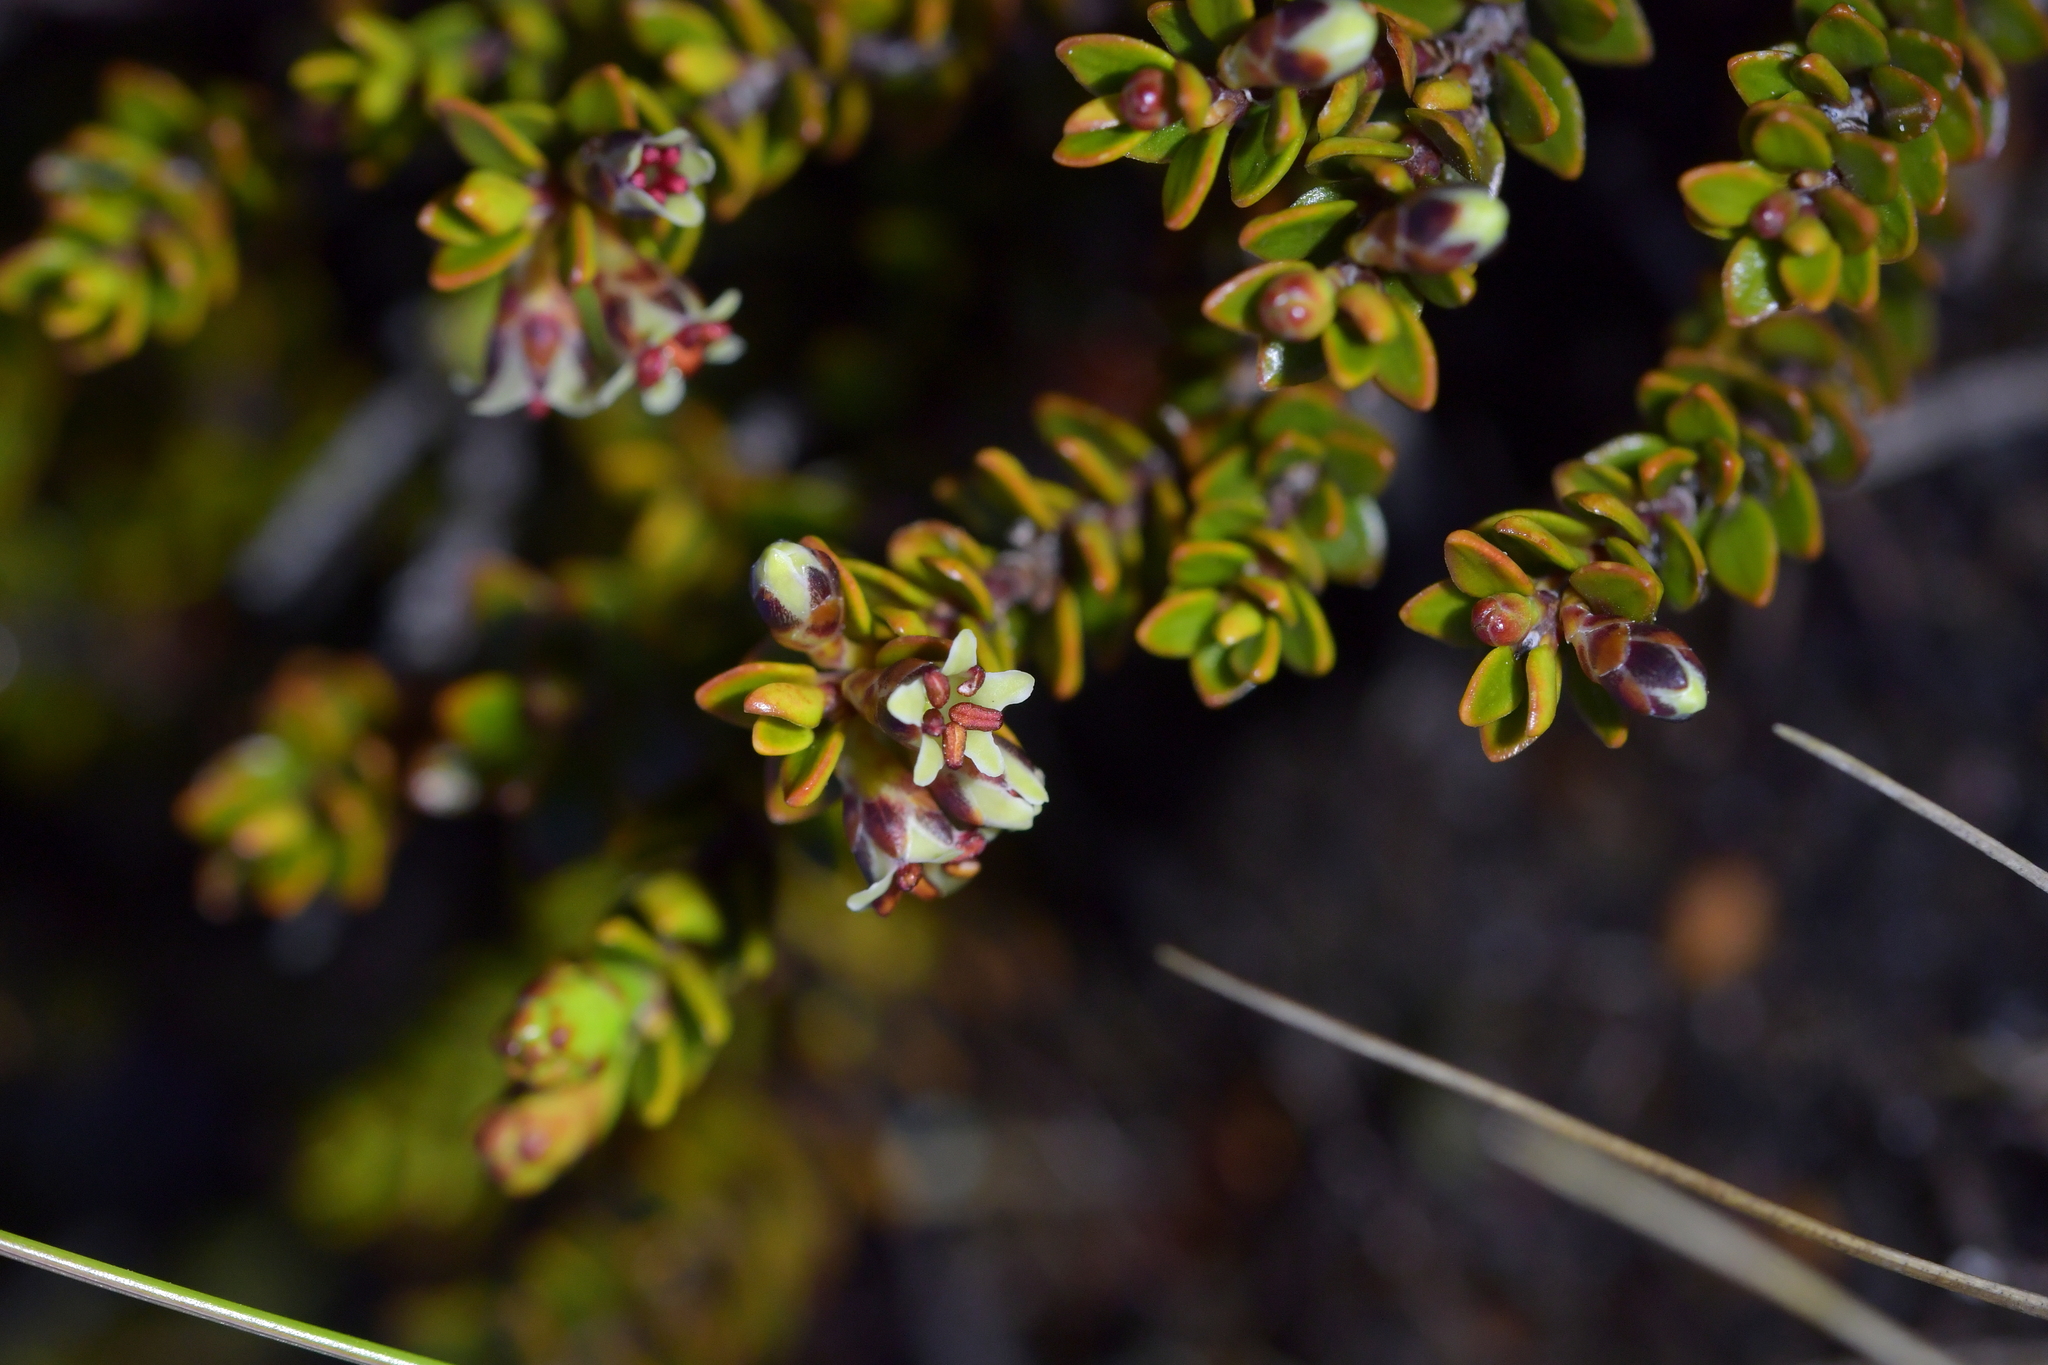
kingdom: Plantae
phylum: Tracheophyta
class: Magnoliopsida
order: Ericales
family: Ericaceae
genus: Epacris
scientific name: Epacris alpina
